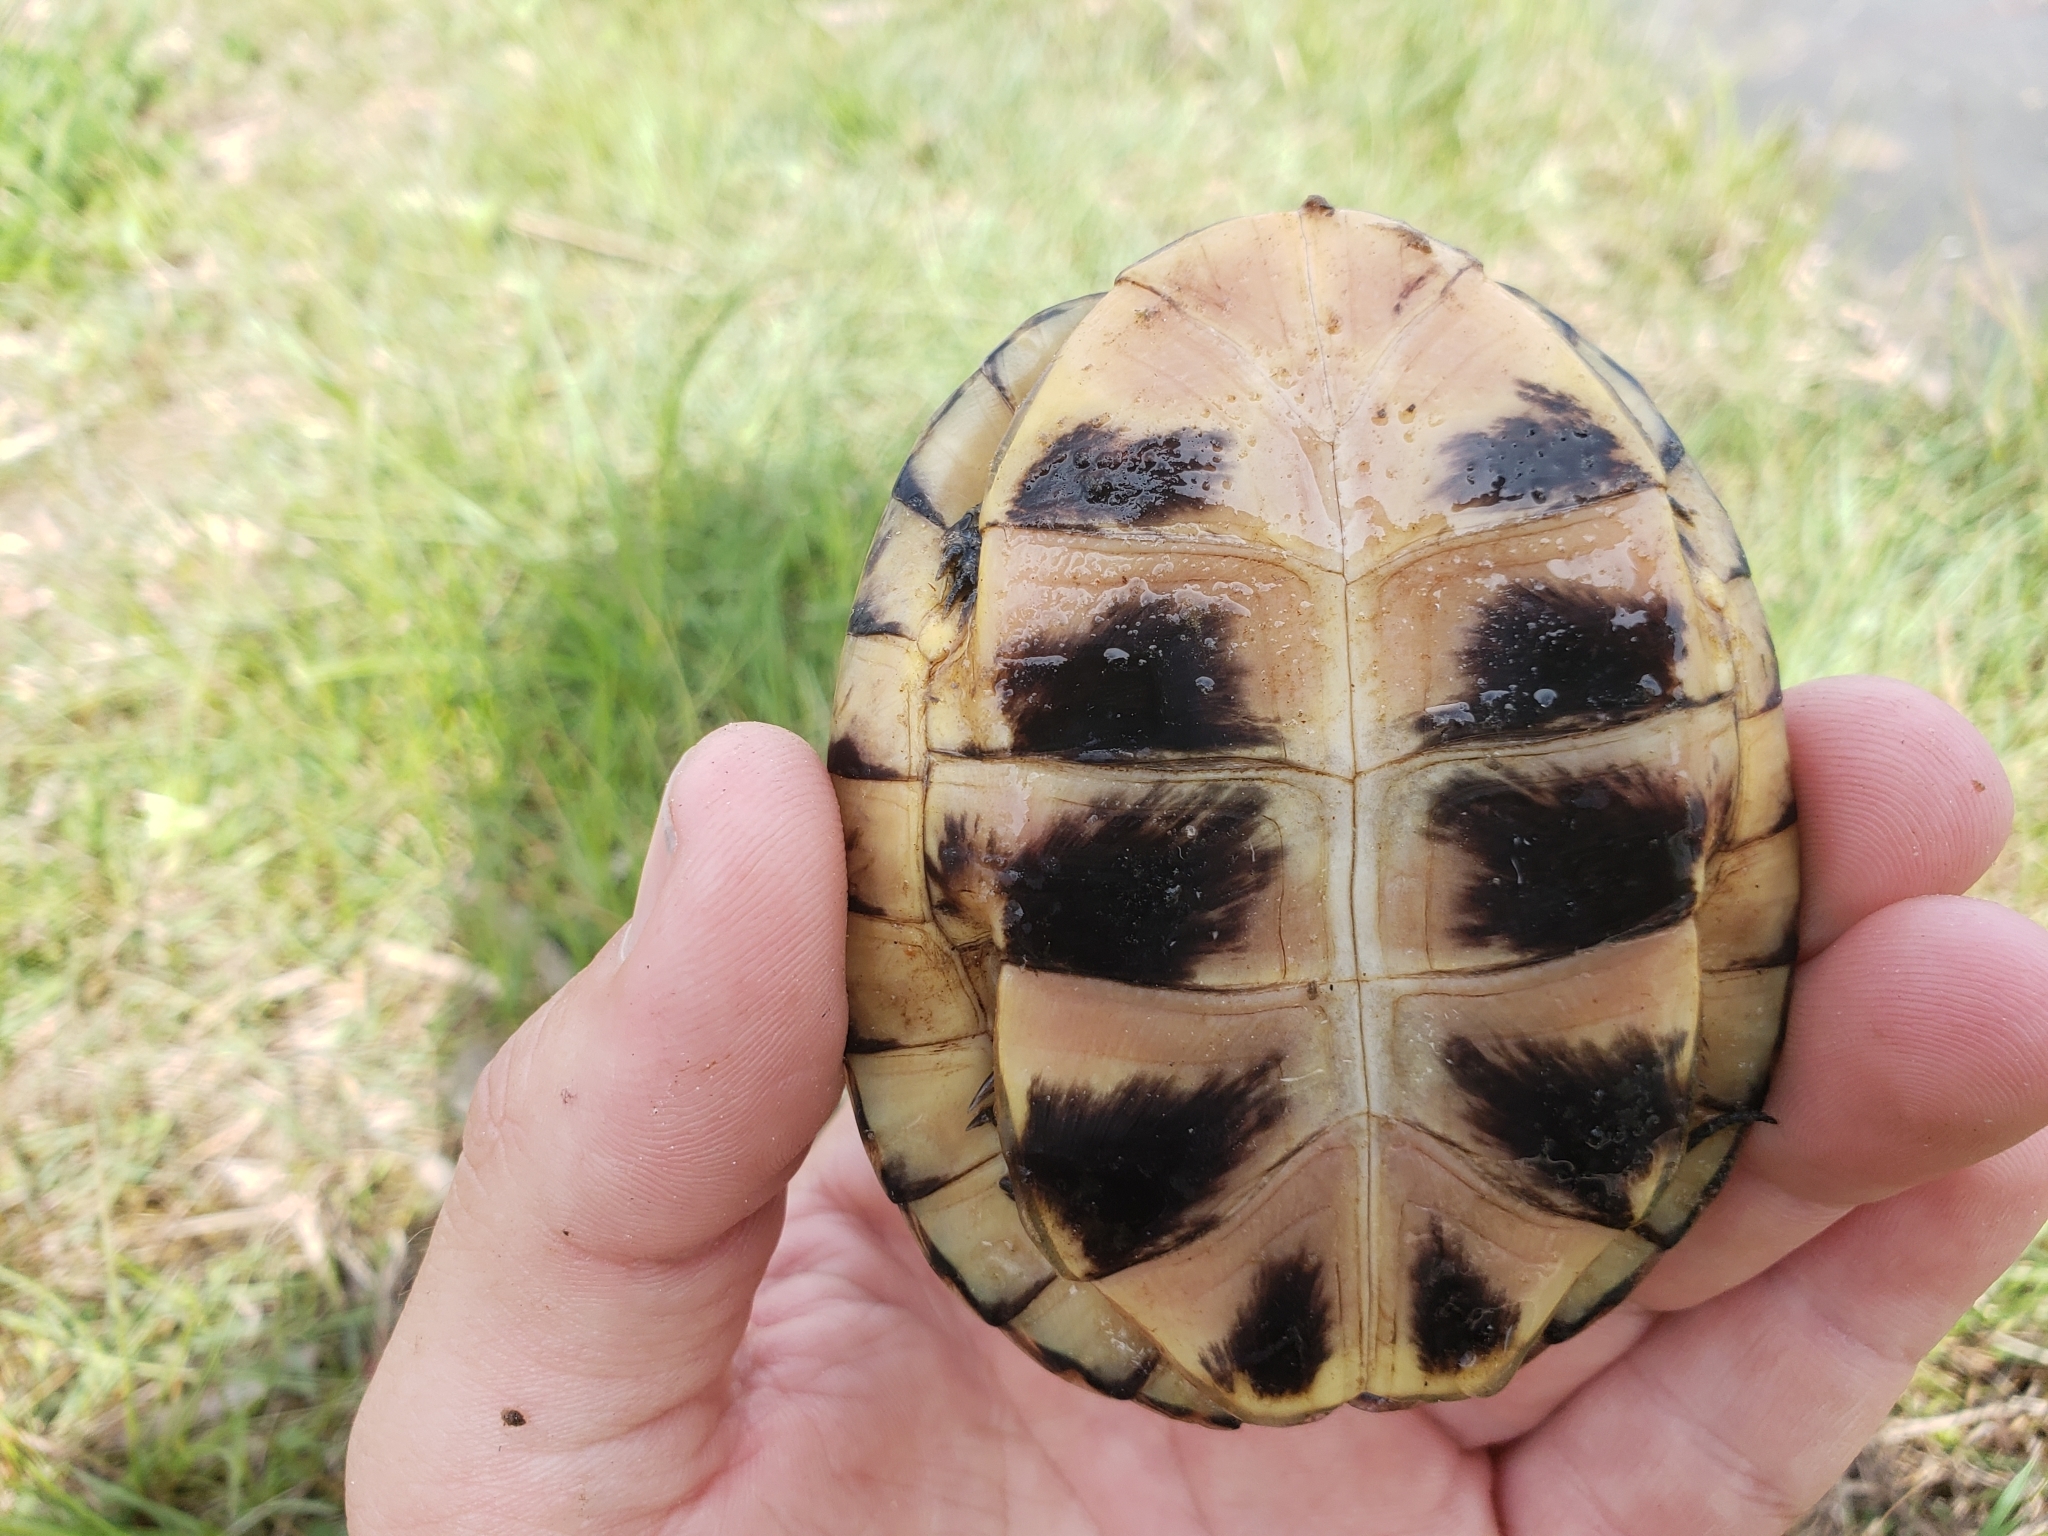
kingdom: Animalia
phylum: Chordata
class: Testudines
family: Emydidae
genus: Emys
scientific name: Emys blandingii
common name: Blanding's turtle
